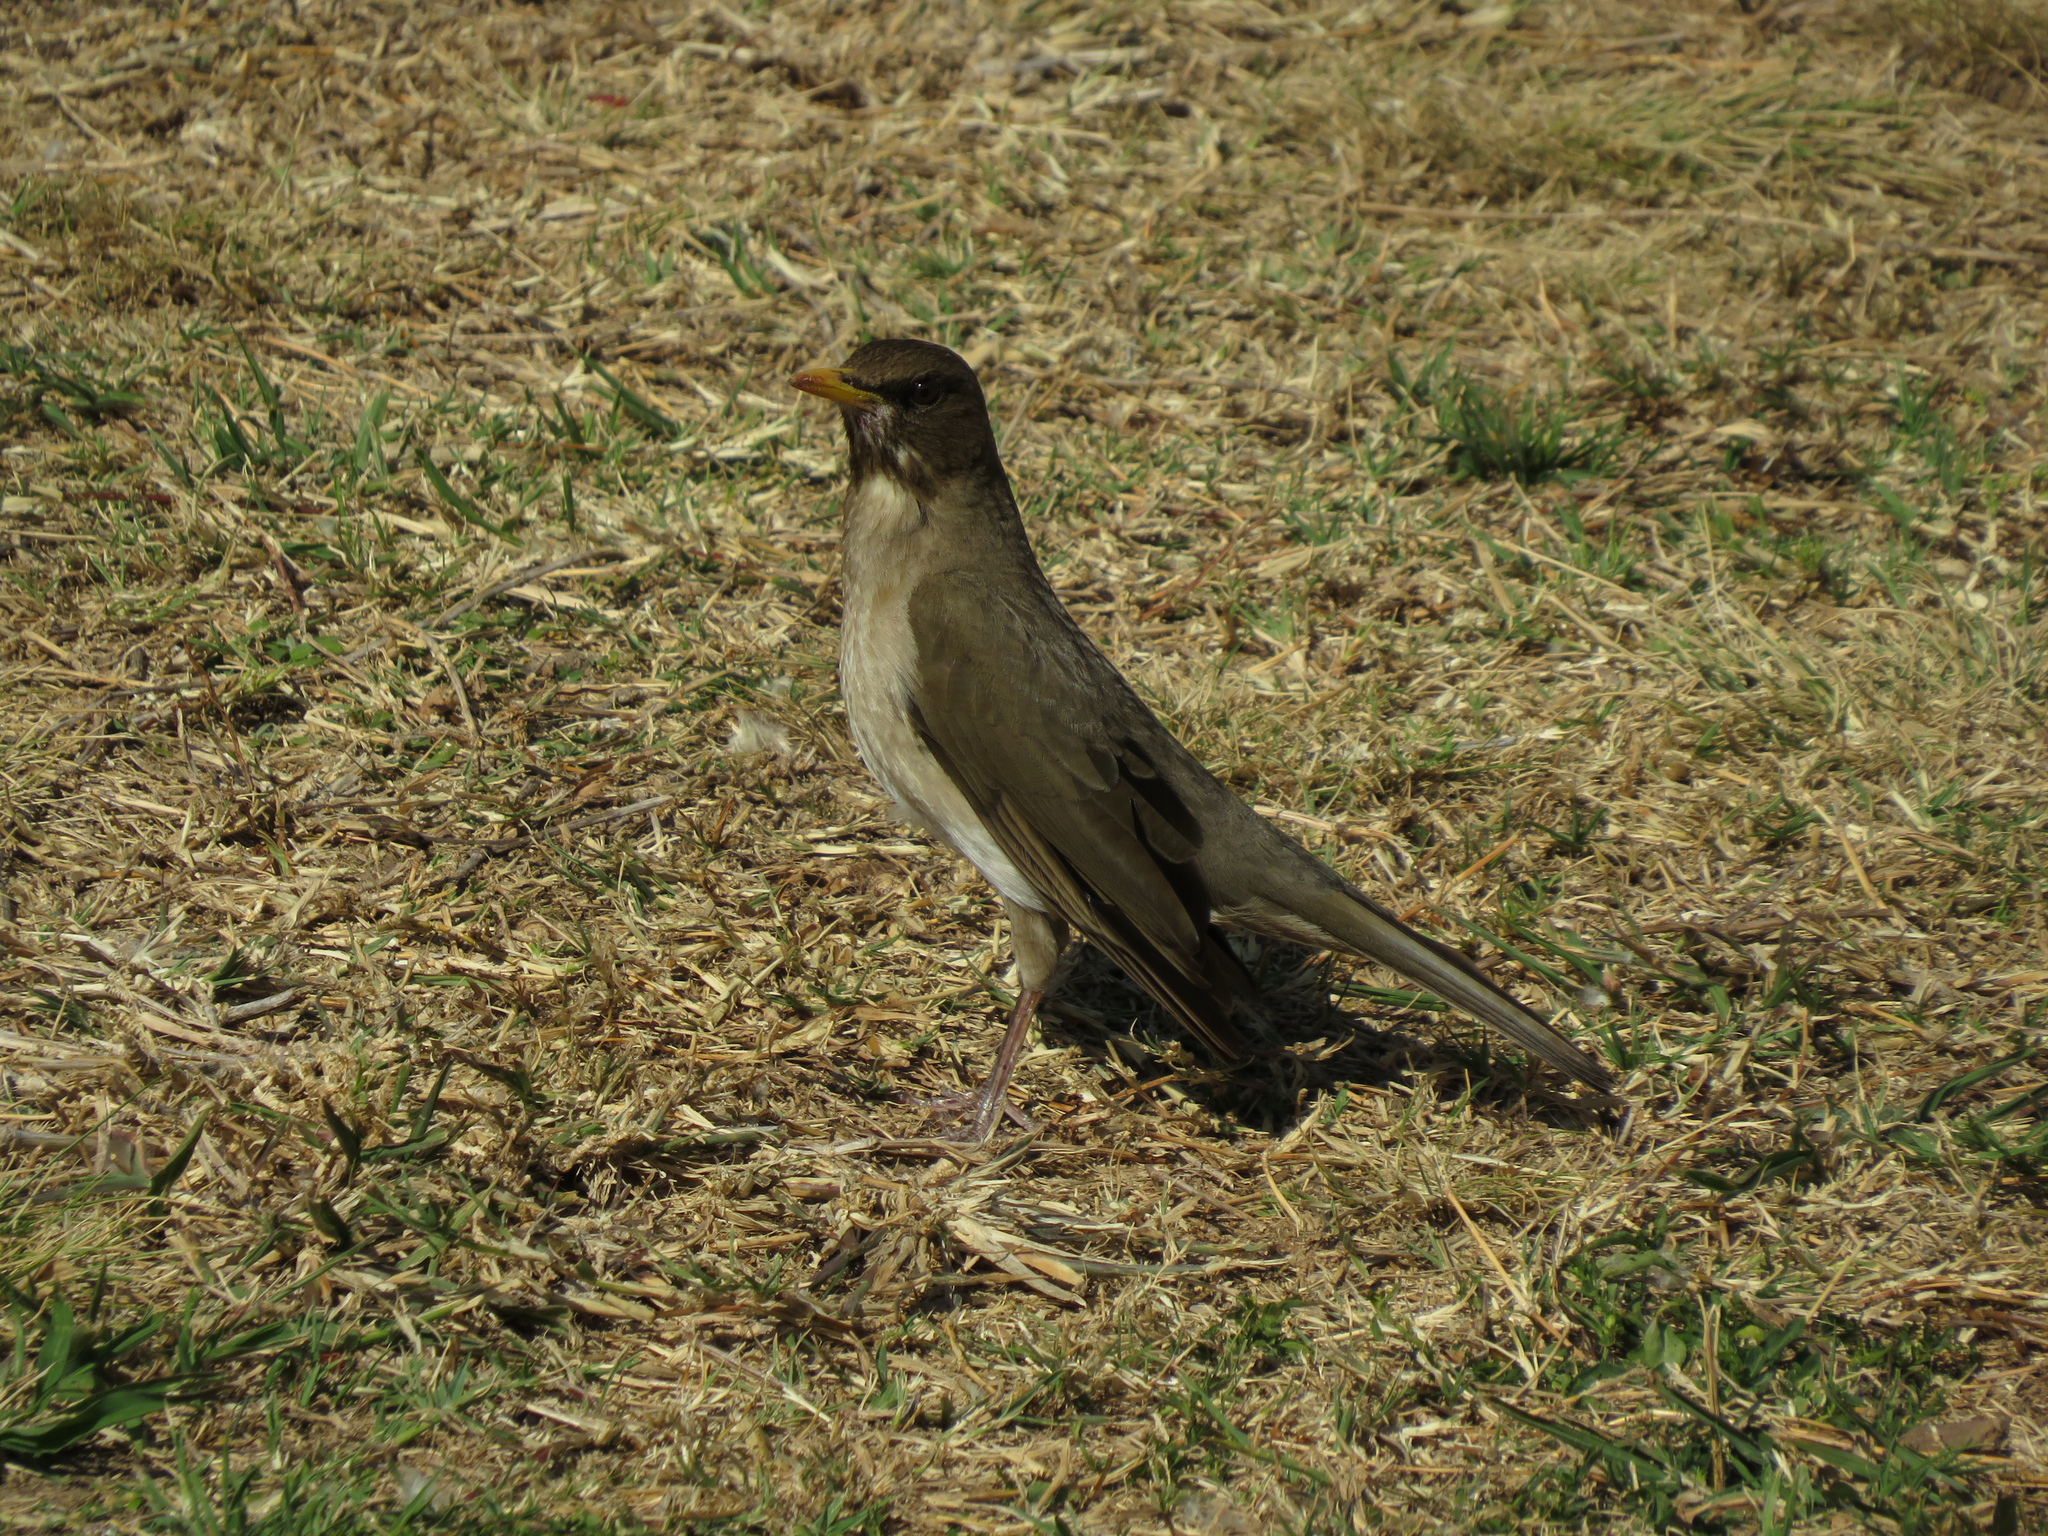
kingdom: Animalia
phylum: Chordata
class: Aves
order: Passeriformes
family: Turdidae
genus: Turdus
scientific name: Turdus amaurochalinus
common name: Creamy-bellied thrush
